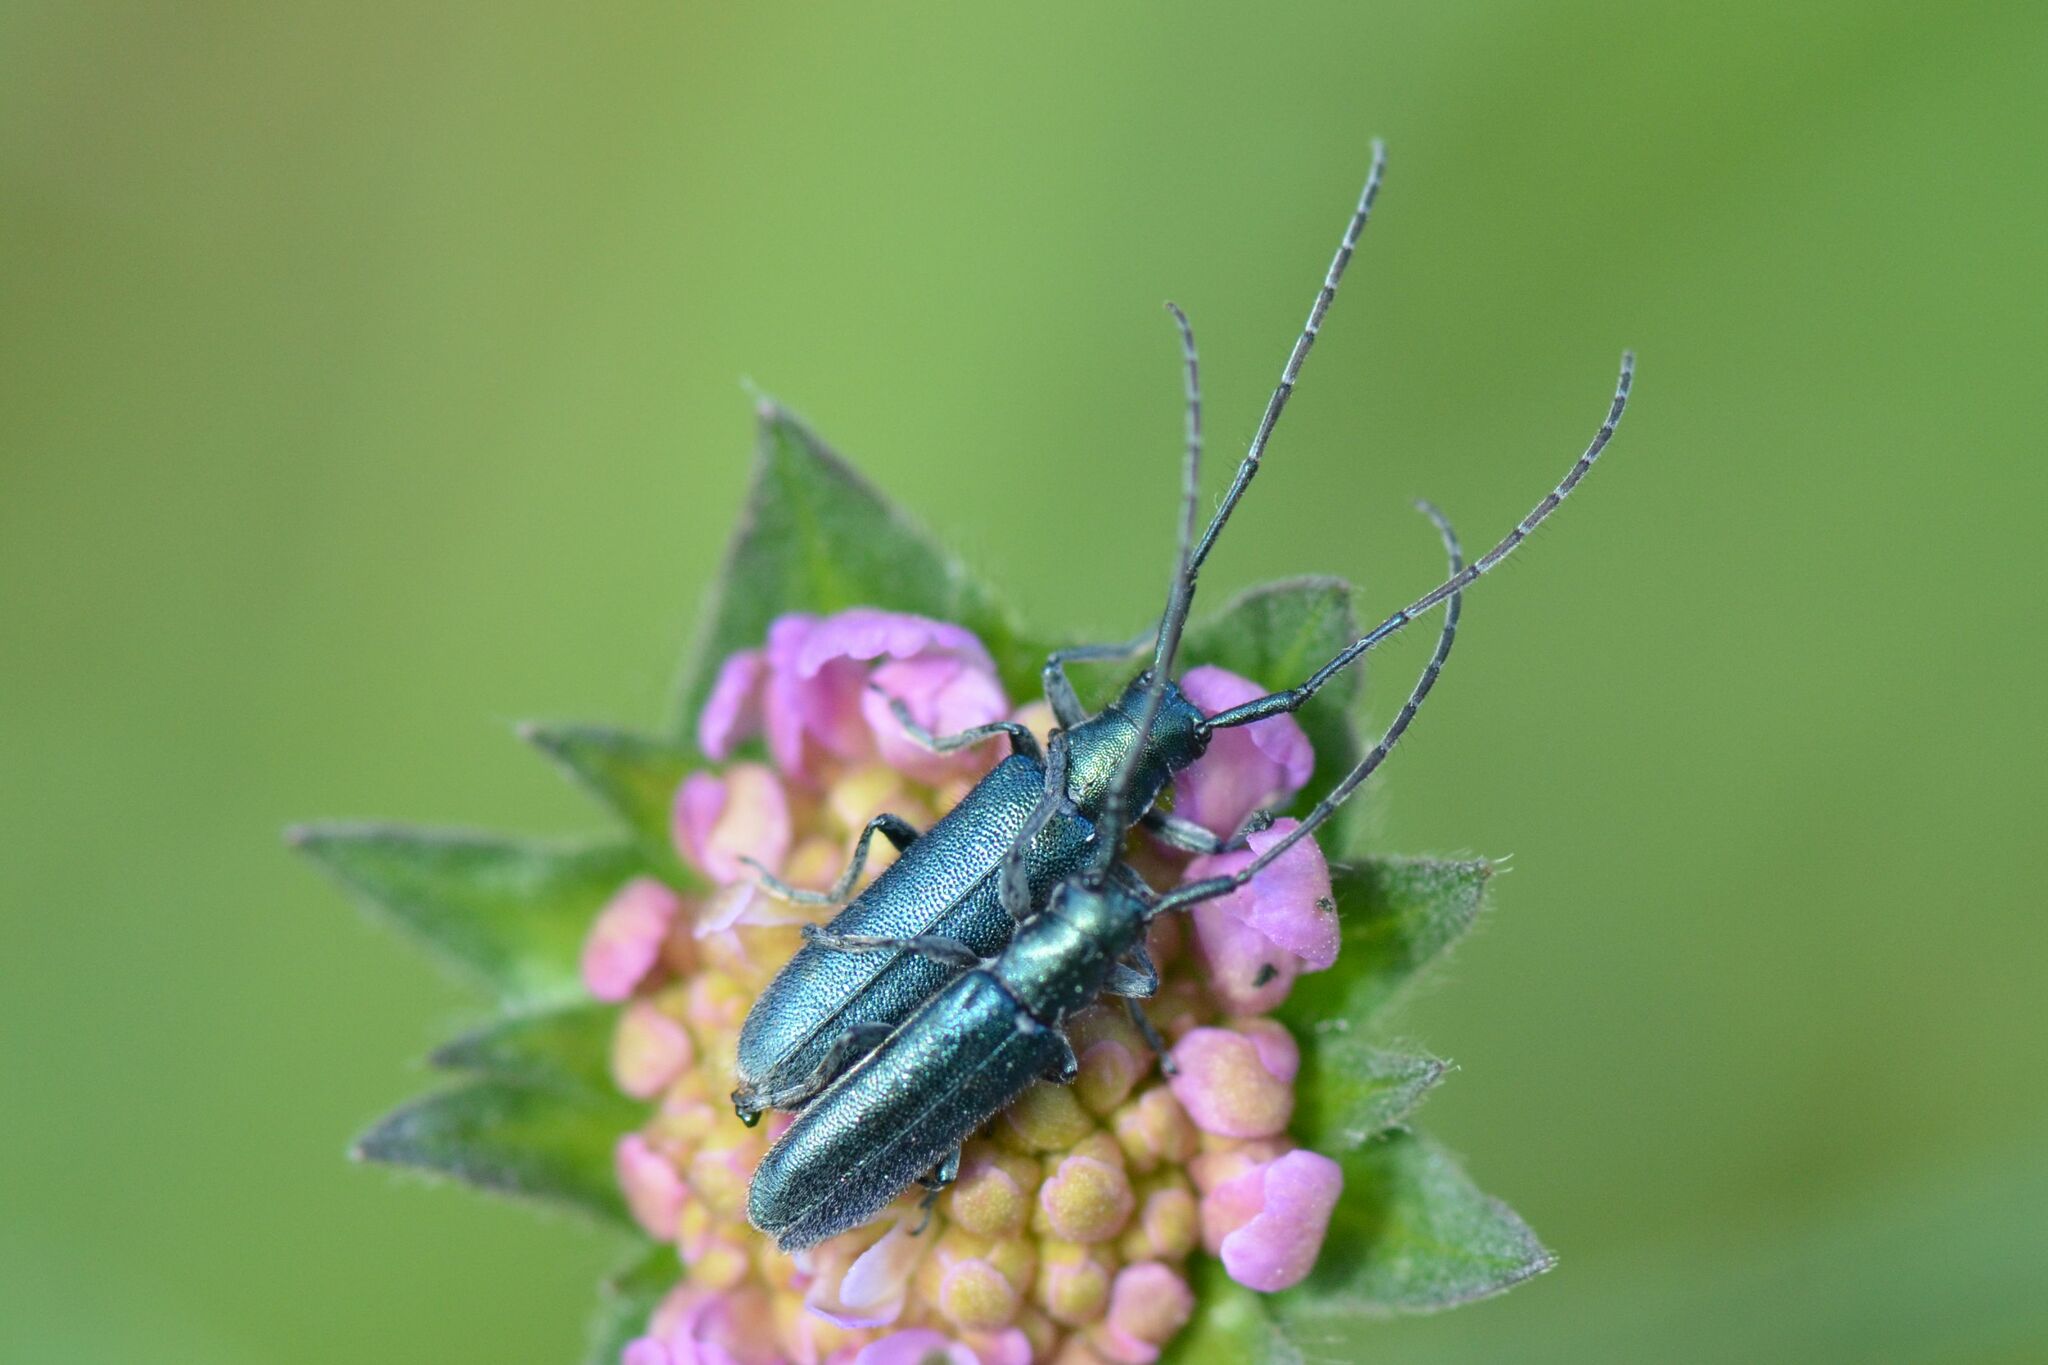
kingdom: Animalia
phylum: Arthropoda
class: Insecta
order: Coleoptera
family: Cerambycidae
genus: Agapanthia
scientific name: Agapanthia intermedia
